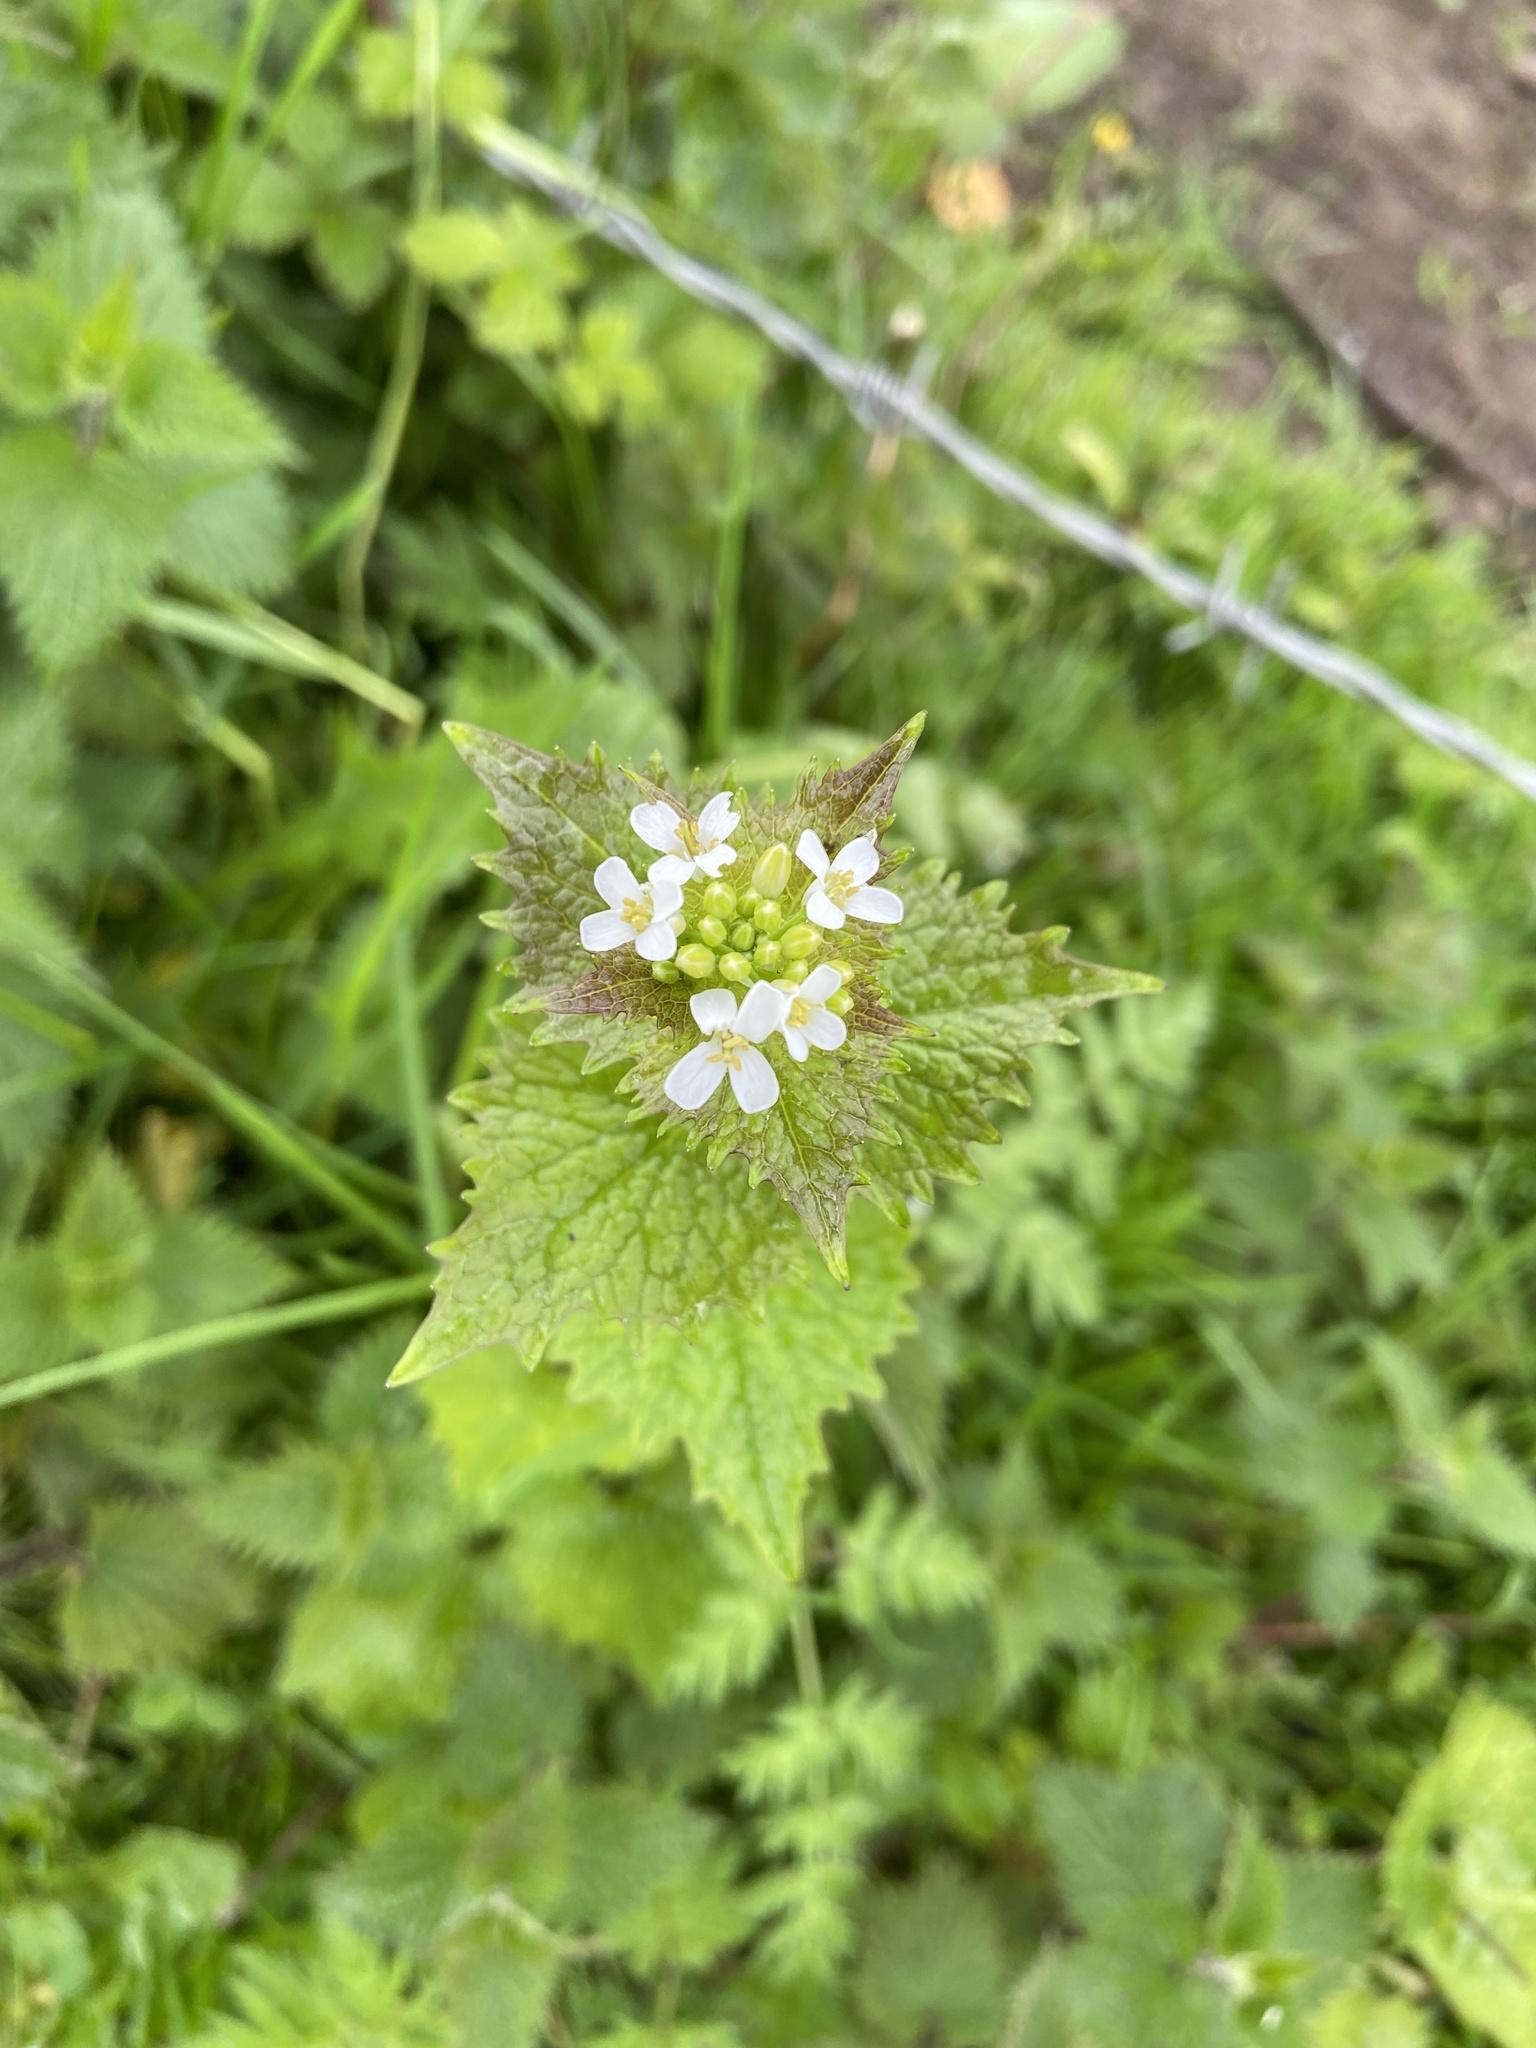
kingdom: Plantae
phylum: Tracheophyta
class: Magnoliopsida
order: Brassicales
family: Brassicaceae
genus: Alliaria
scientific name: Alliaria petiolata
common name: Garlic mustard
